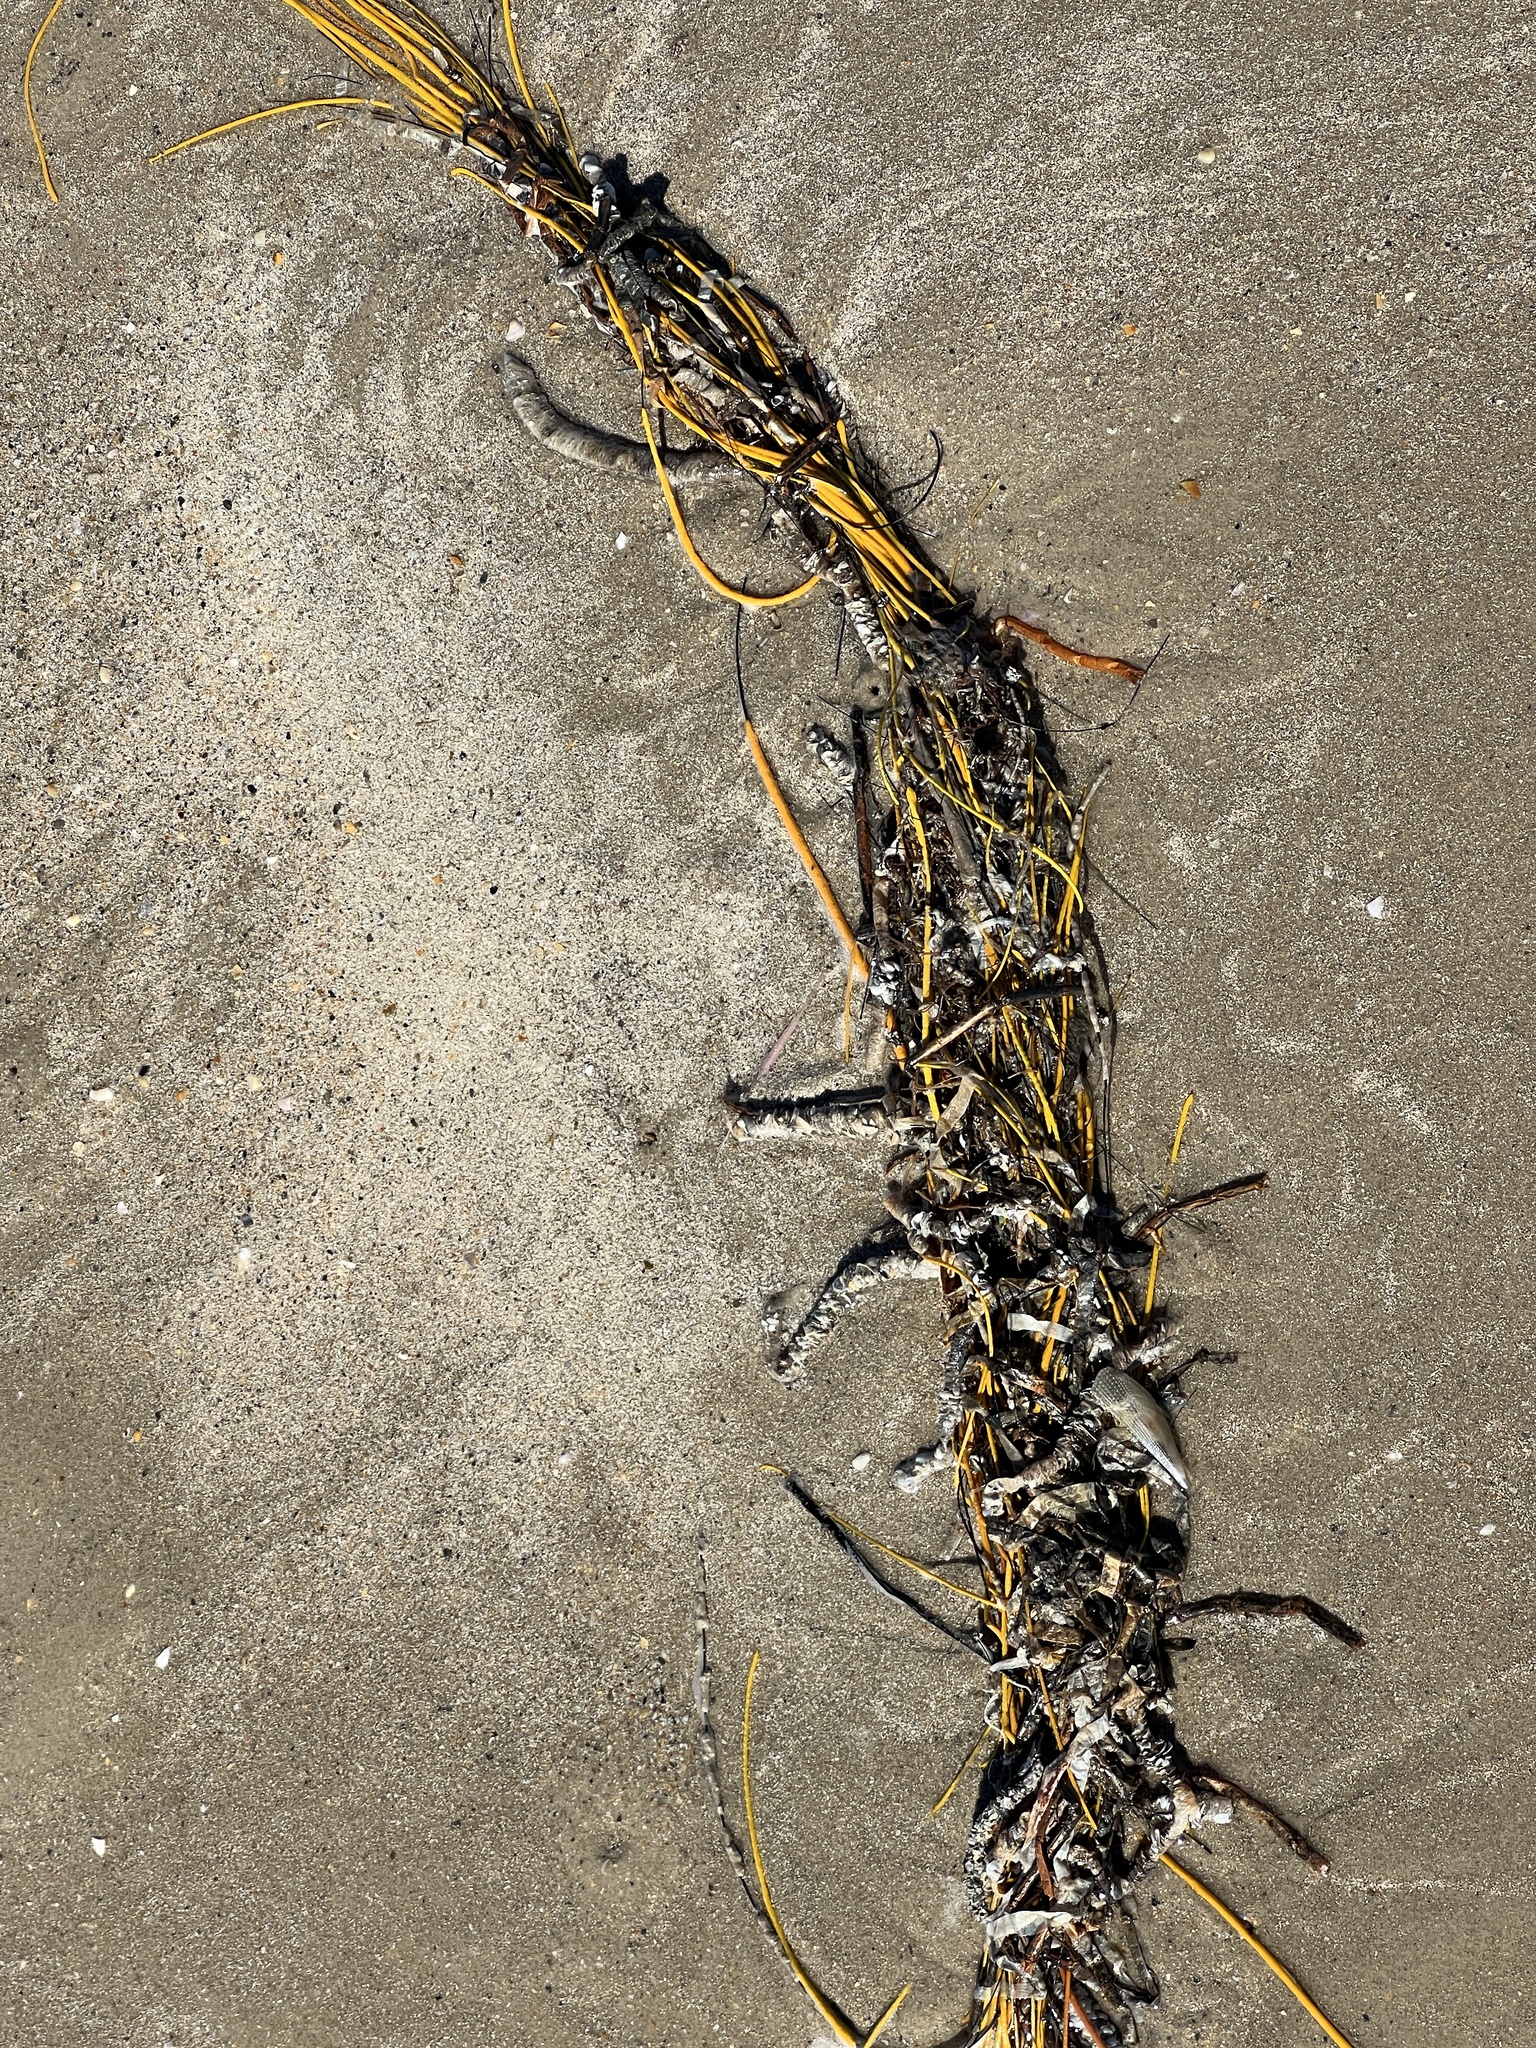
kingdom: Animalia
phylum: Cnidaria
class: Anthozoa
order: Malacalcyonacea
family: Gorgoniidae
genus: Leptogorgia
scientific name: Leptogorgia setacea
